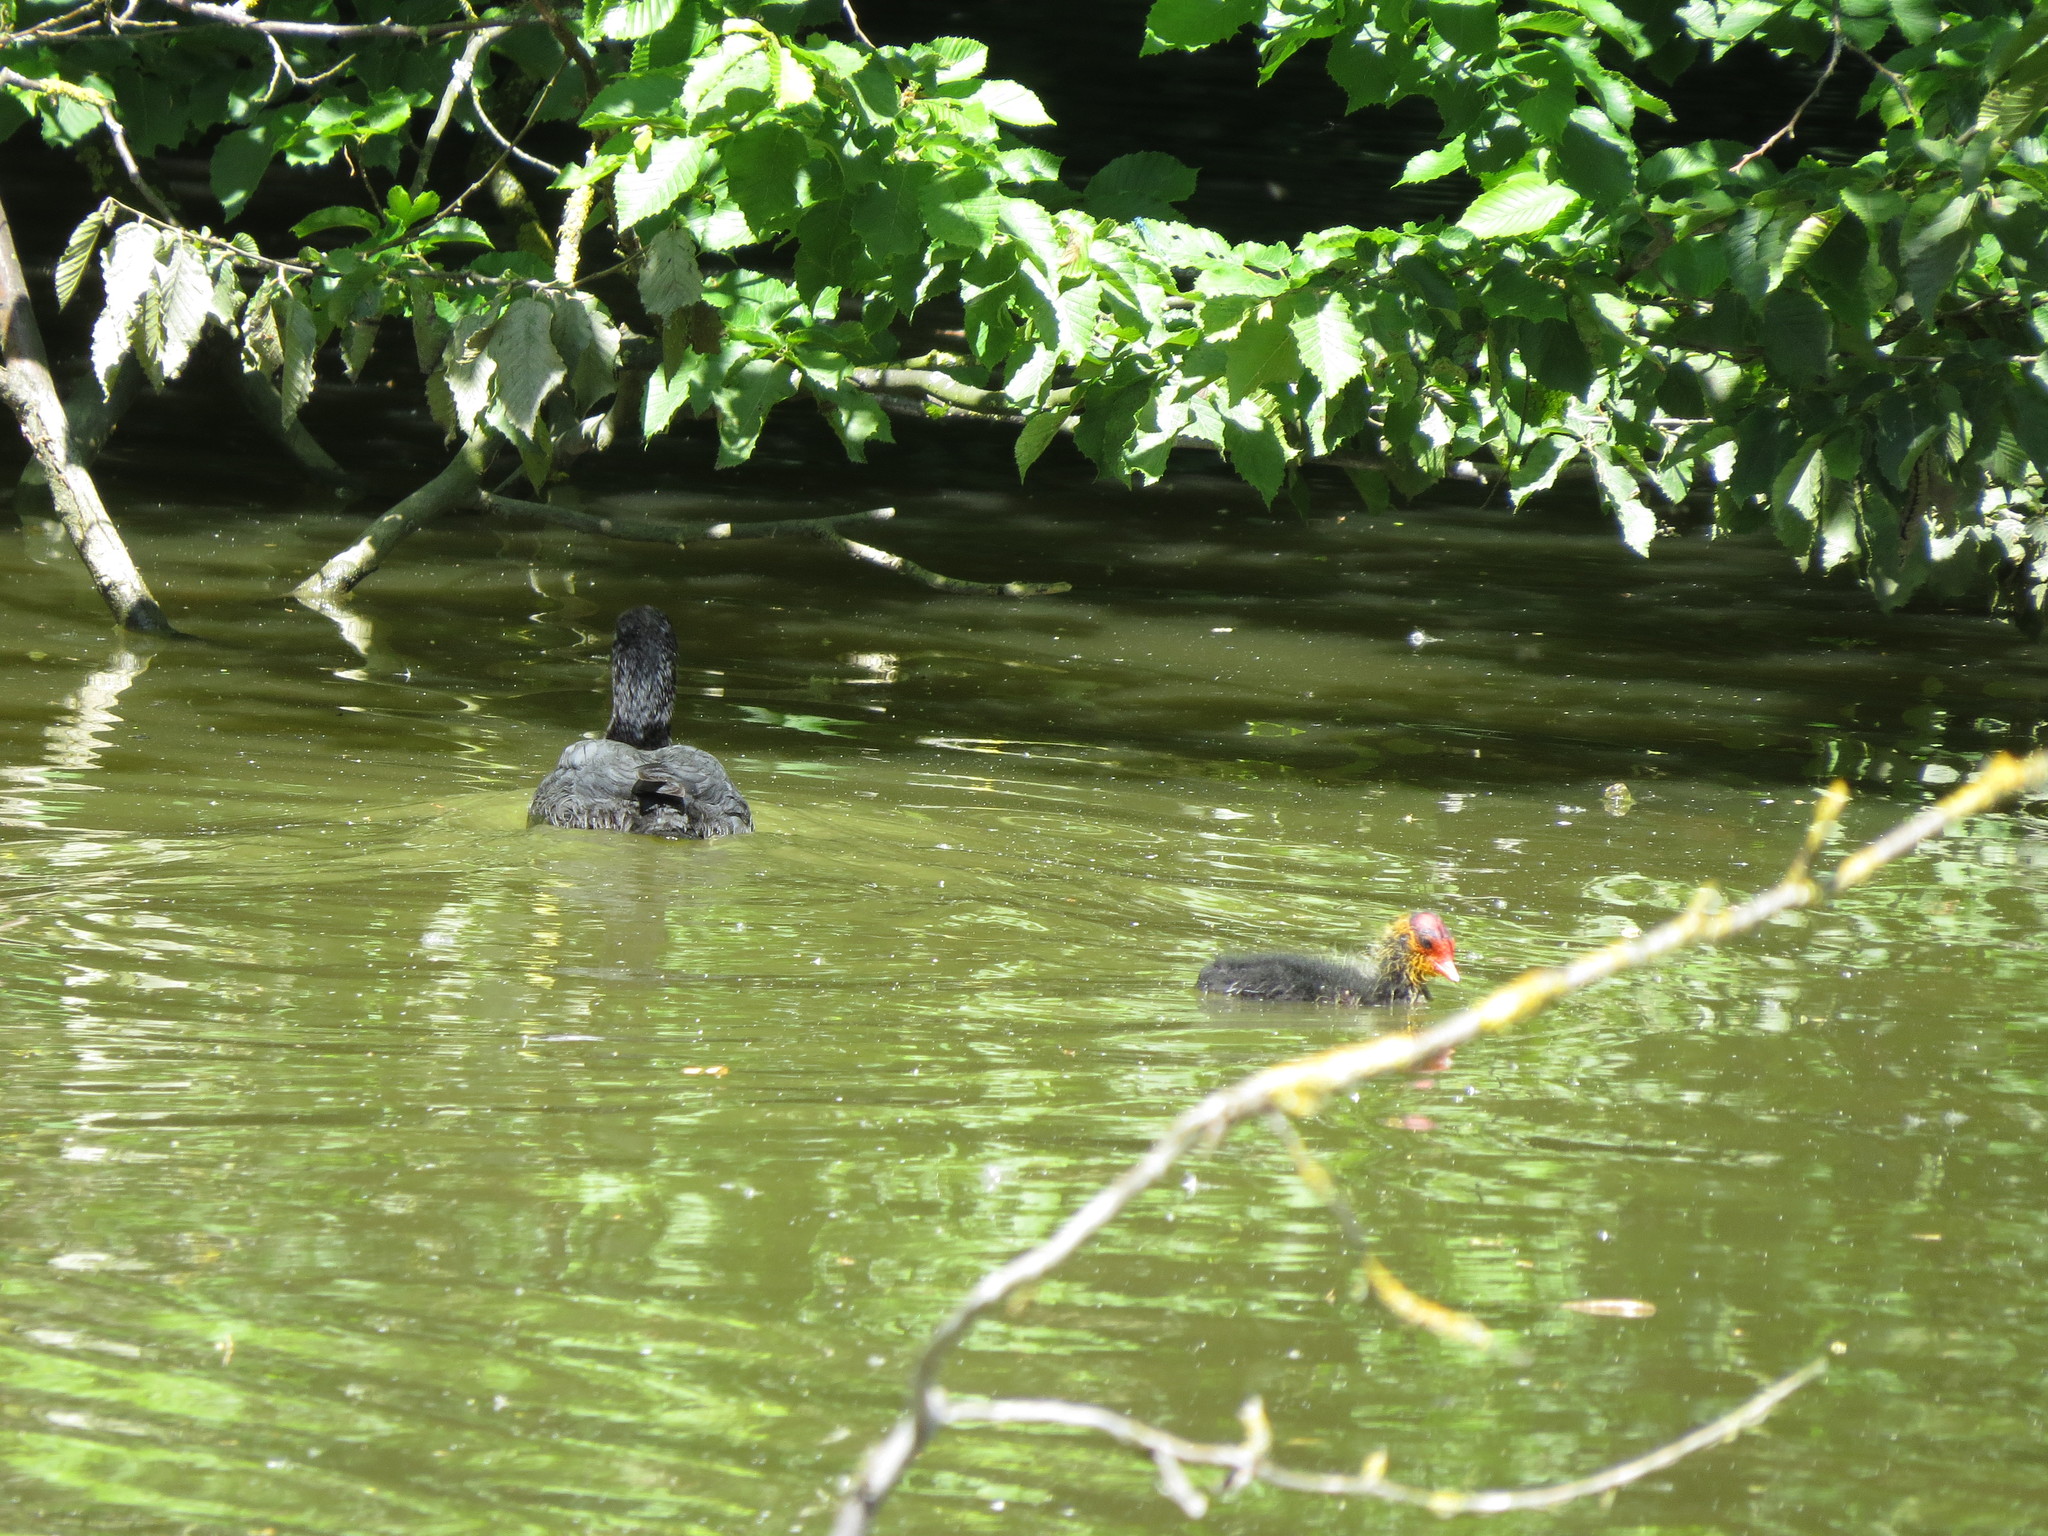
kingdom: Animalia
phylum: Chordata
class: Aves
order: Gruiformes
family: Rallidae
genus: Fulica
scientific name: Fulica atra
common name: Eurasian coot
